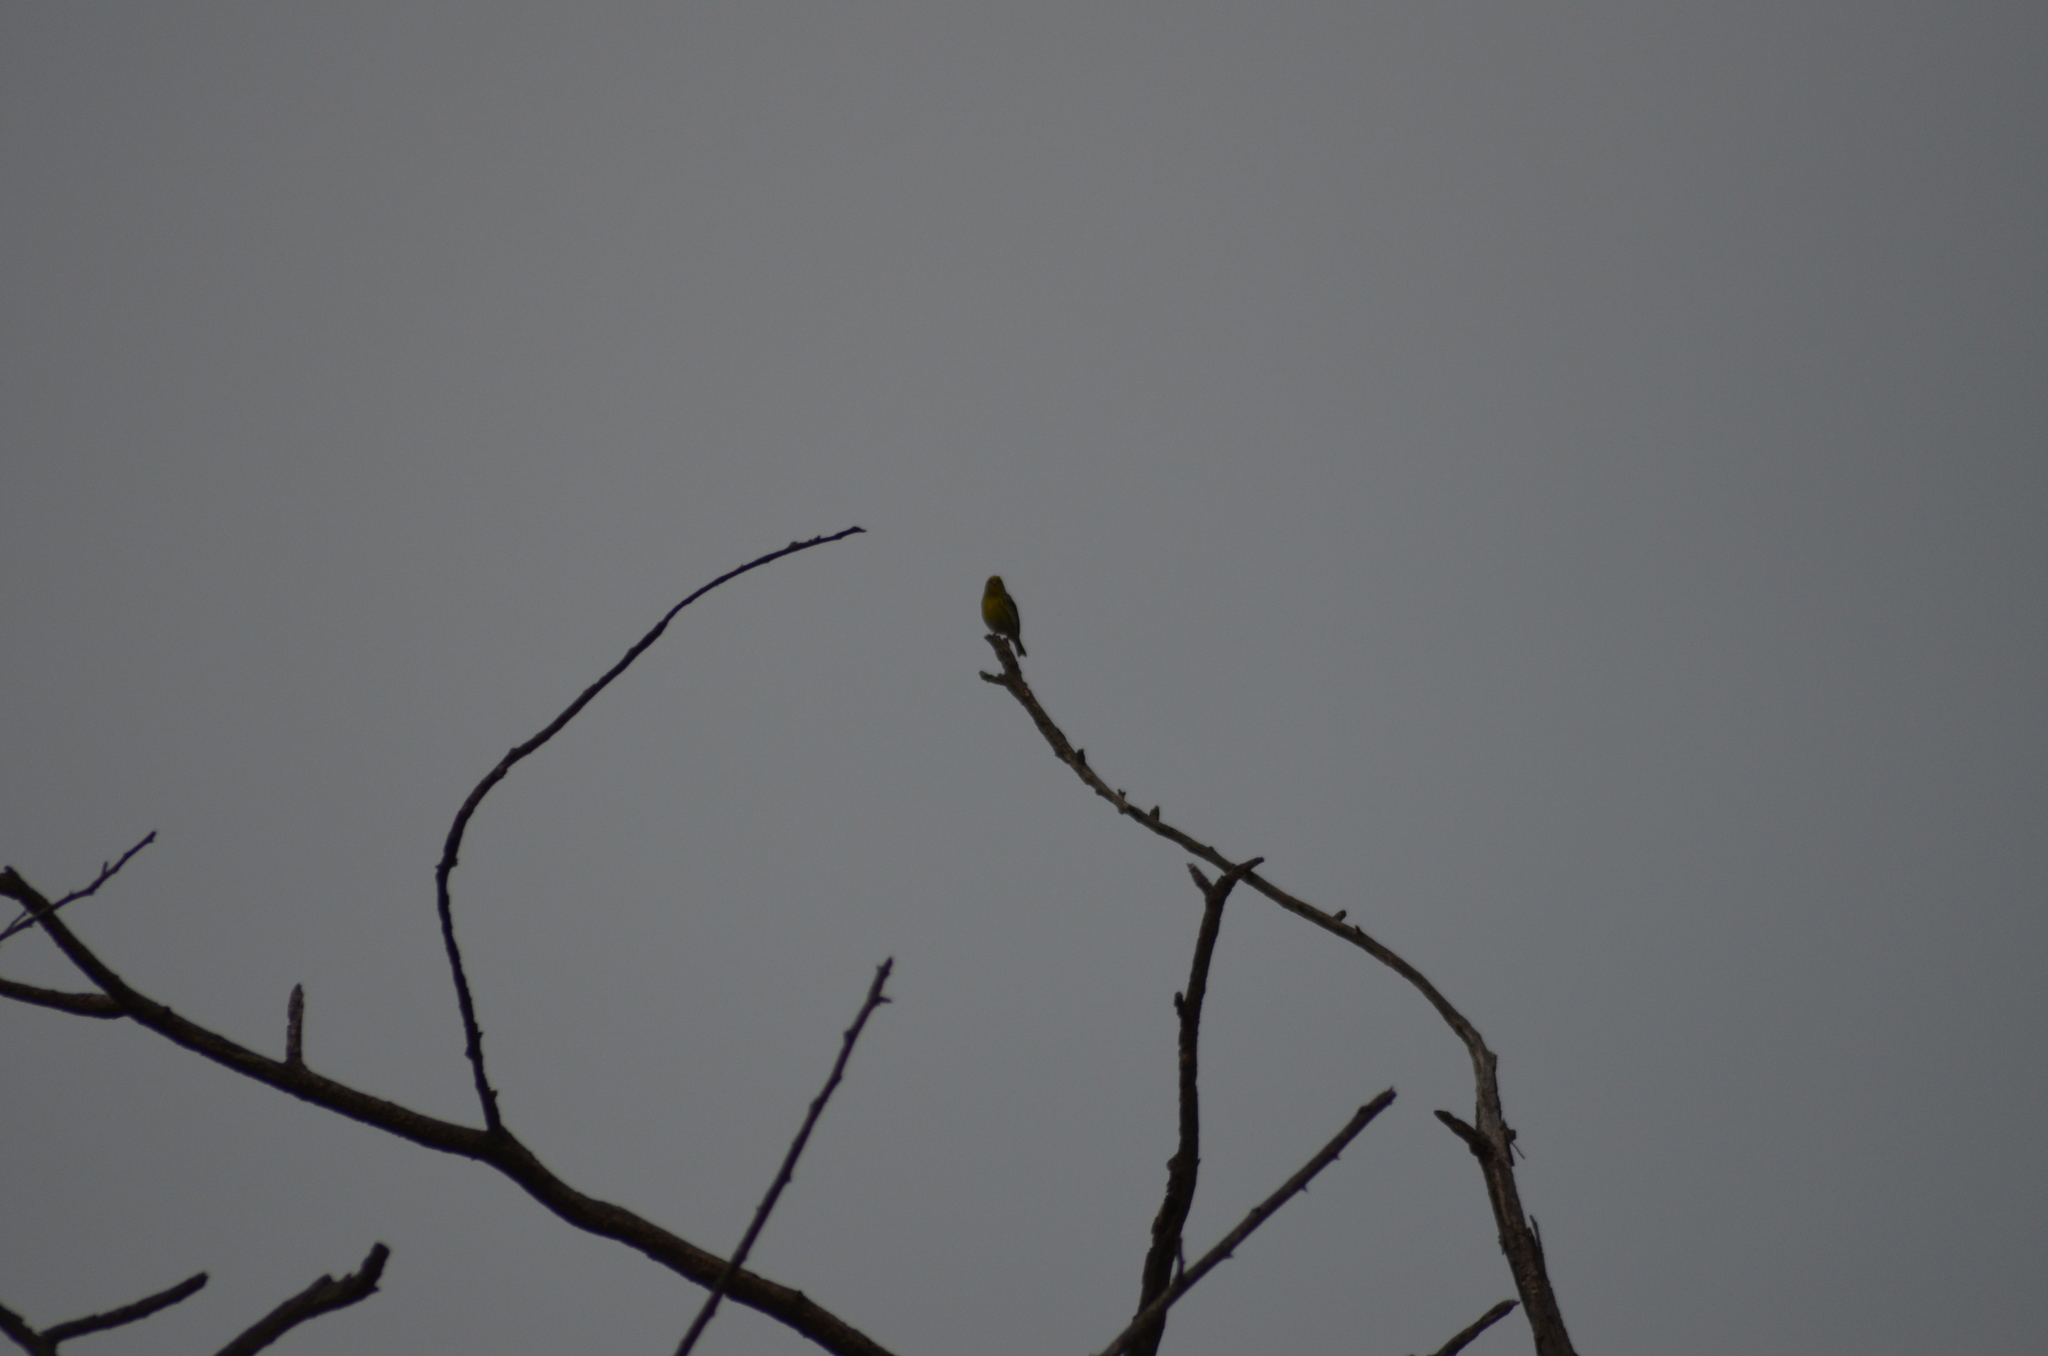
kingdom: Animalia
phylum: Chordata
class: Aves
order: Passeriformes
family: Fringillidae
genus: Serinus
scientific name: Serinus serinus
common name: European serin
